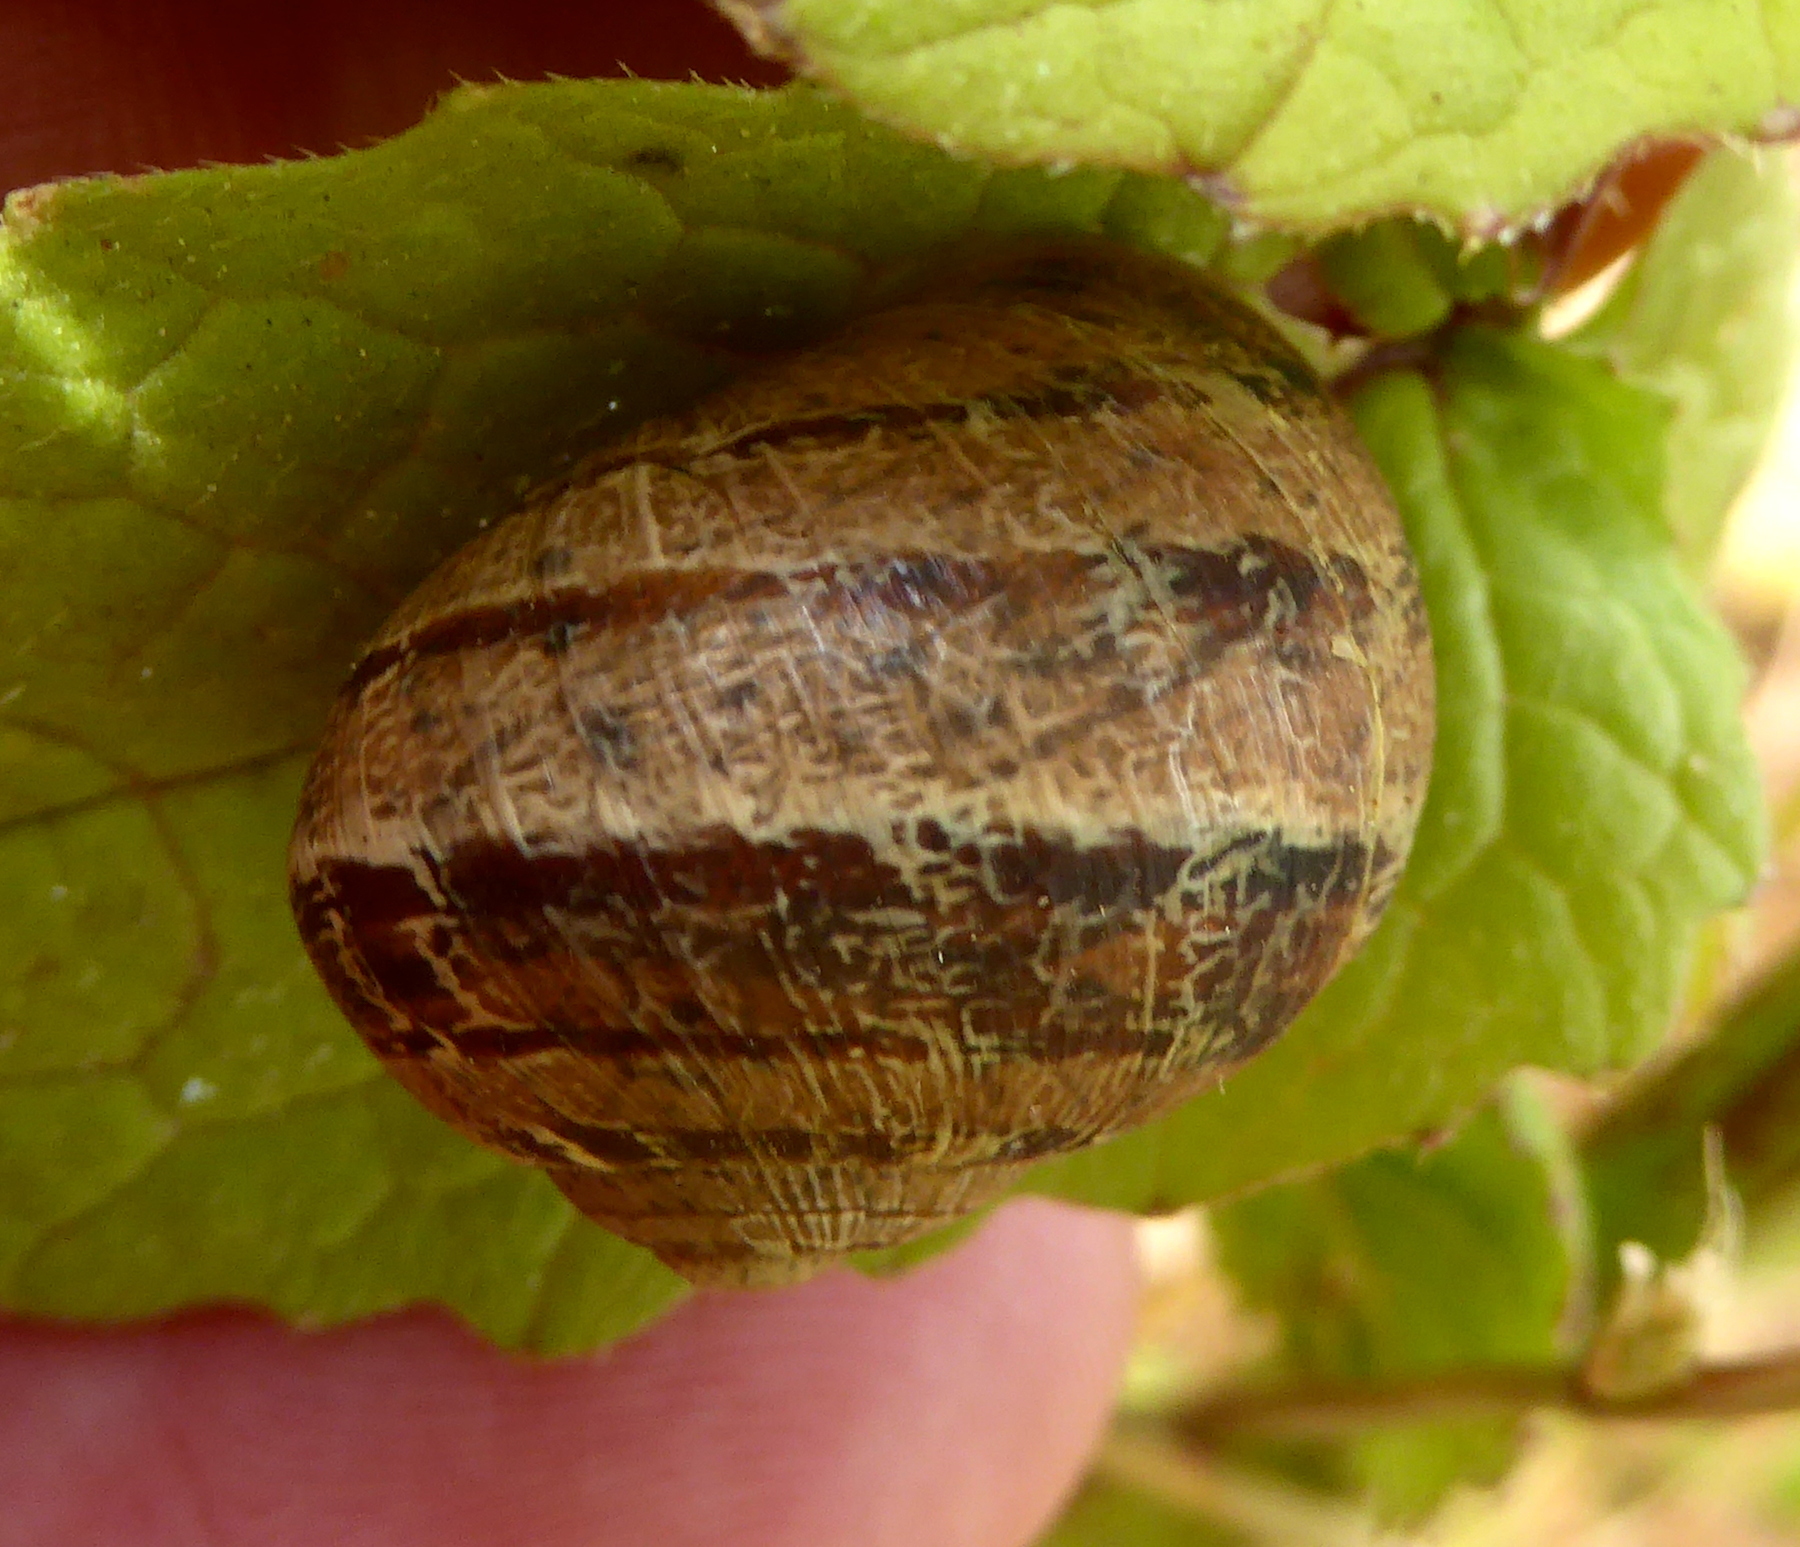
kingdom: Animalia
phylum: Mollusca
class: Gastropoda
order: Stylommatophora
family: Helicidae
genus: Cornu
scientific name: Cornu aspersum
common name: Brown garden snail
